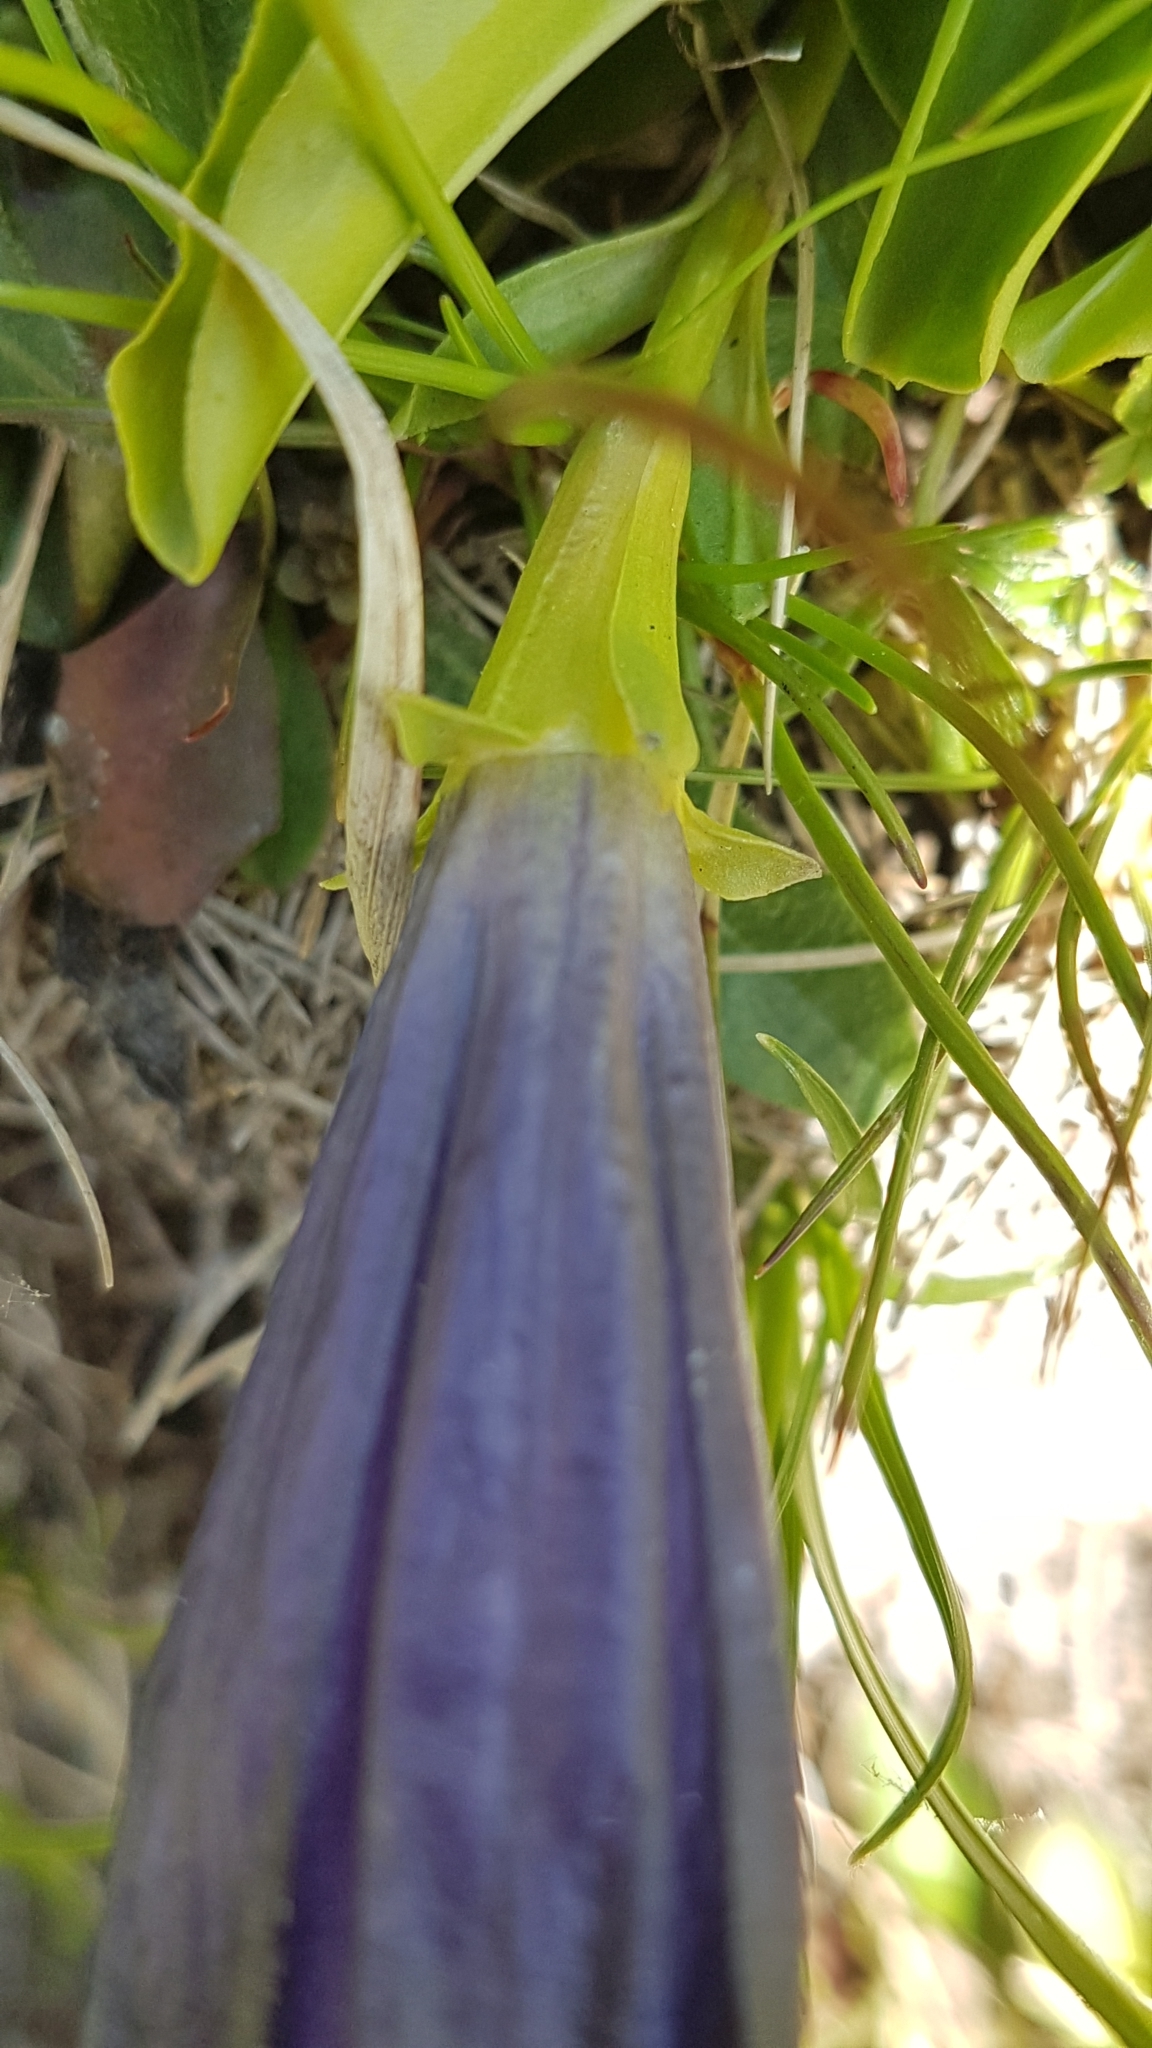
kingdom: Plantae
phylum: Tracheophyta
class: Magnoliopsida
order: Gentianales
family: Gentianaceae
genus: Gentiana
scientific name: Gentiana acaulis
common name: Trumpet gentian
